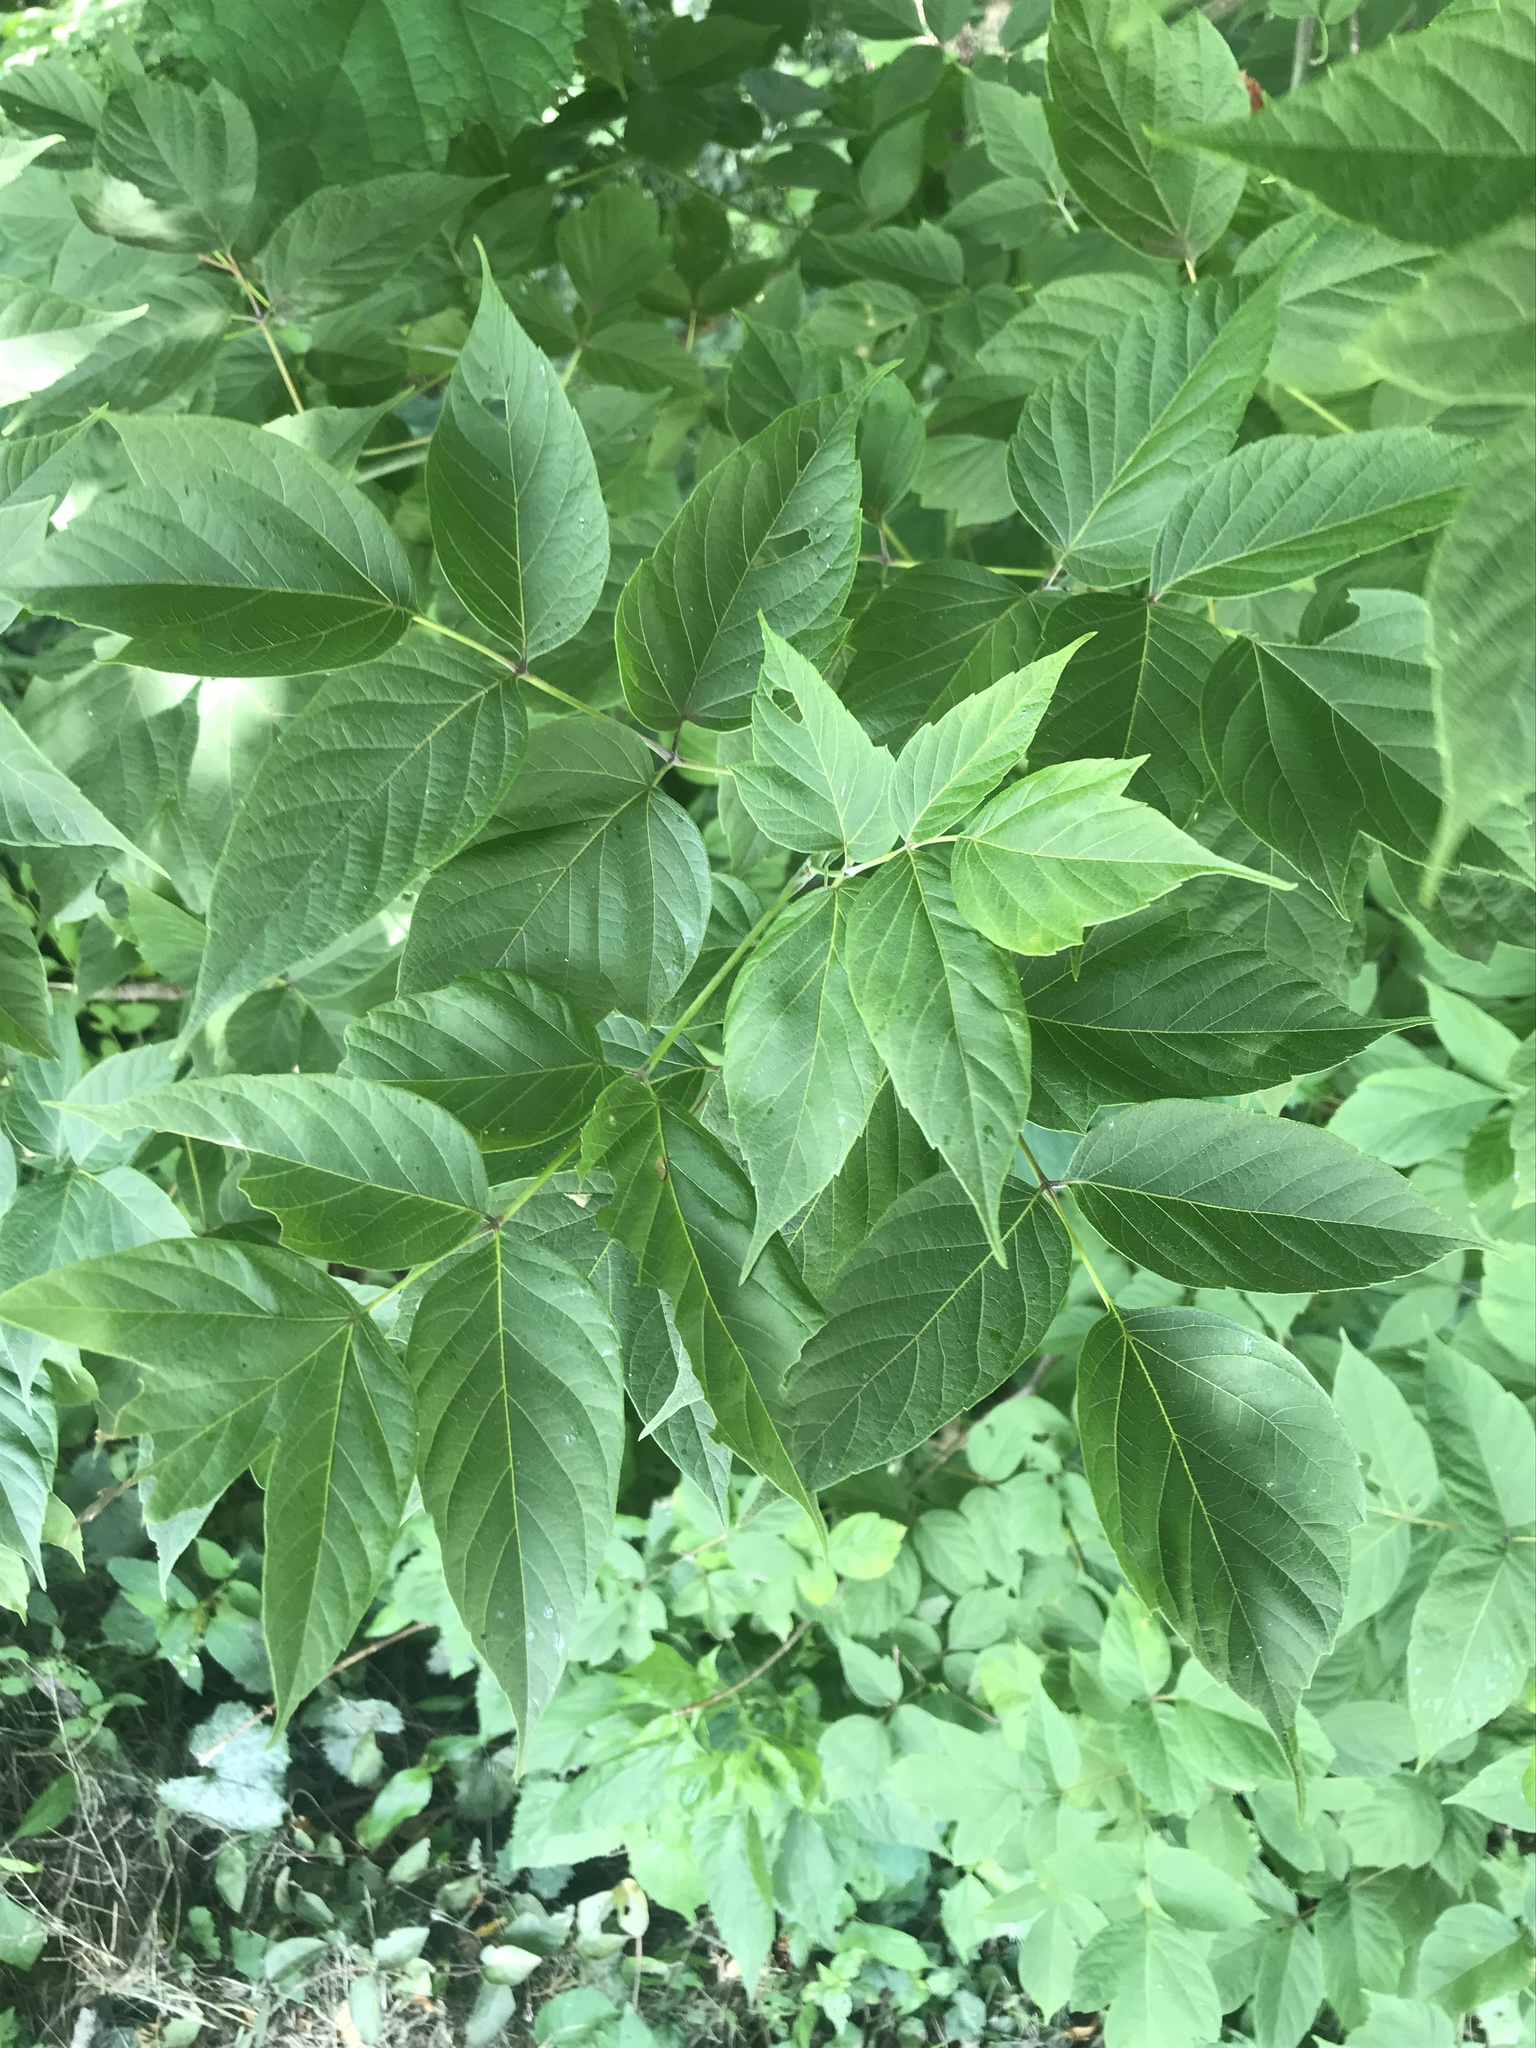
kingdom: Plantae
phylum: Tracheophyta
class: Magnoliopsida
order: Sapindales
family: Sapindaceae
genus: Acer
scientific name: Acer negundo
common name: Ashleaf maple
